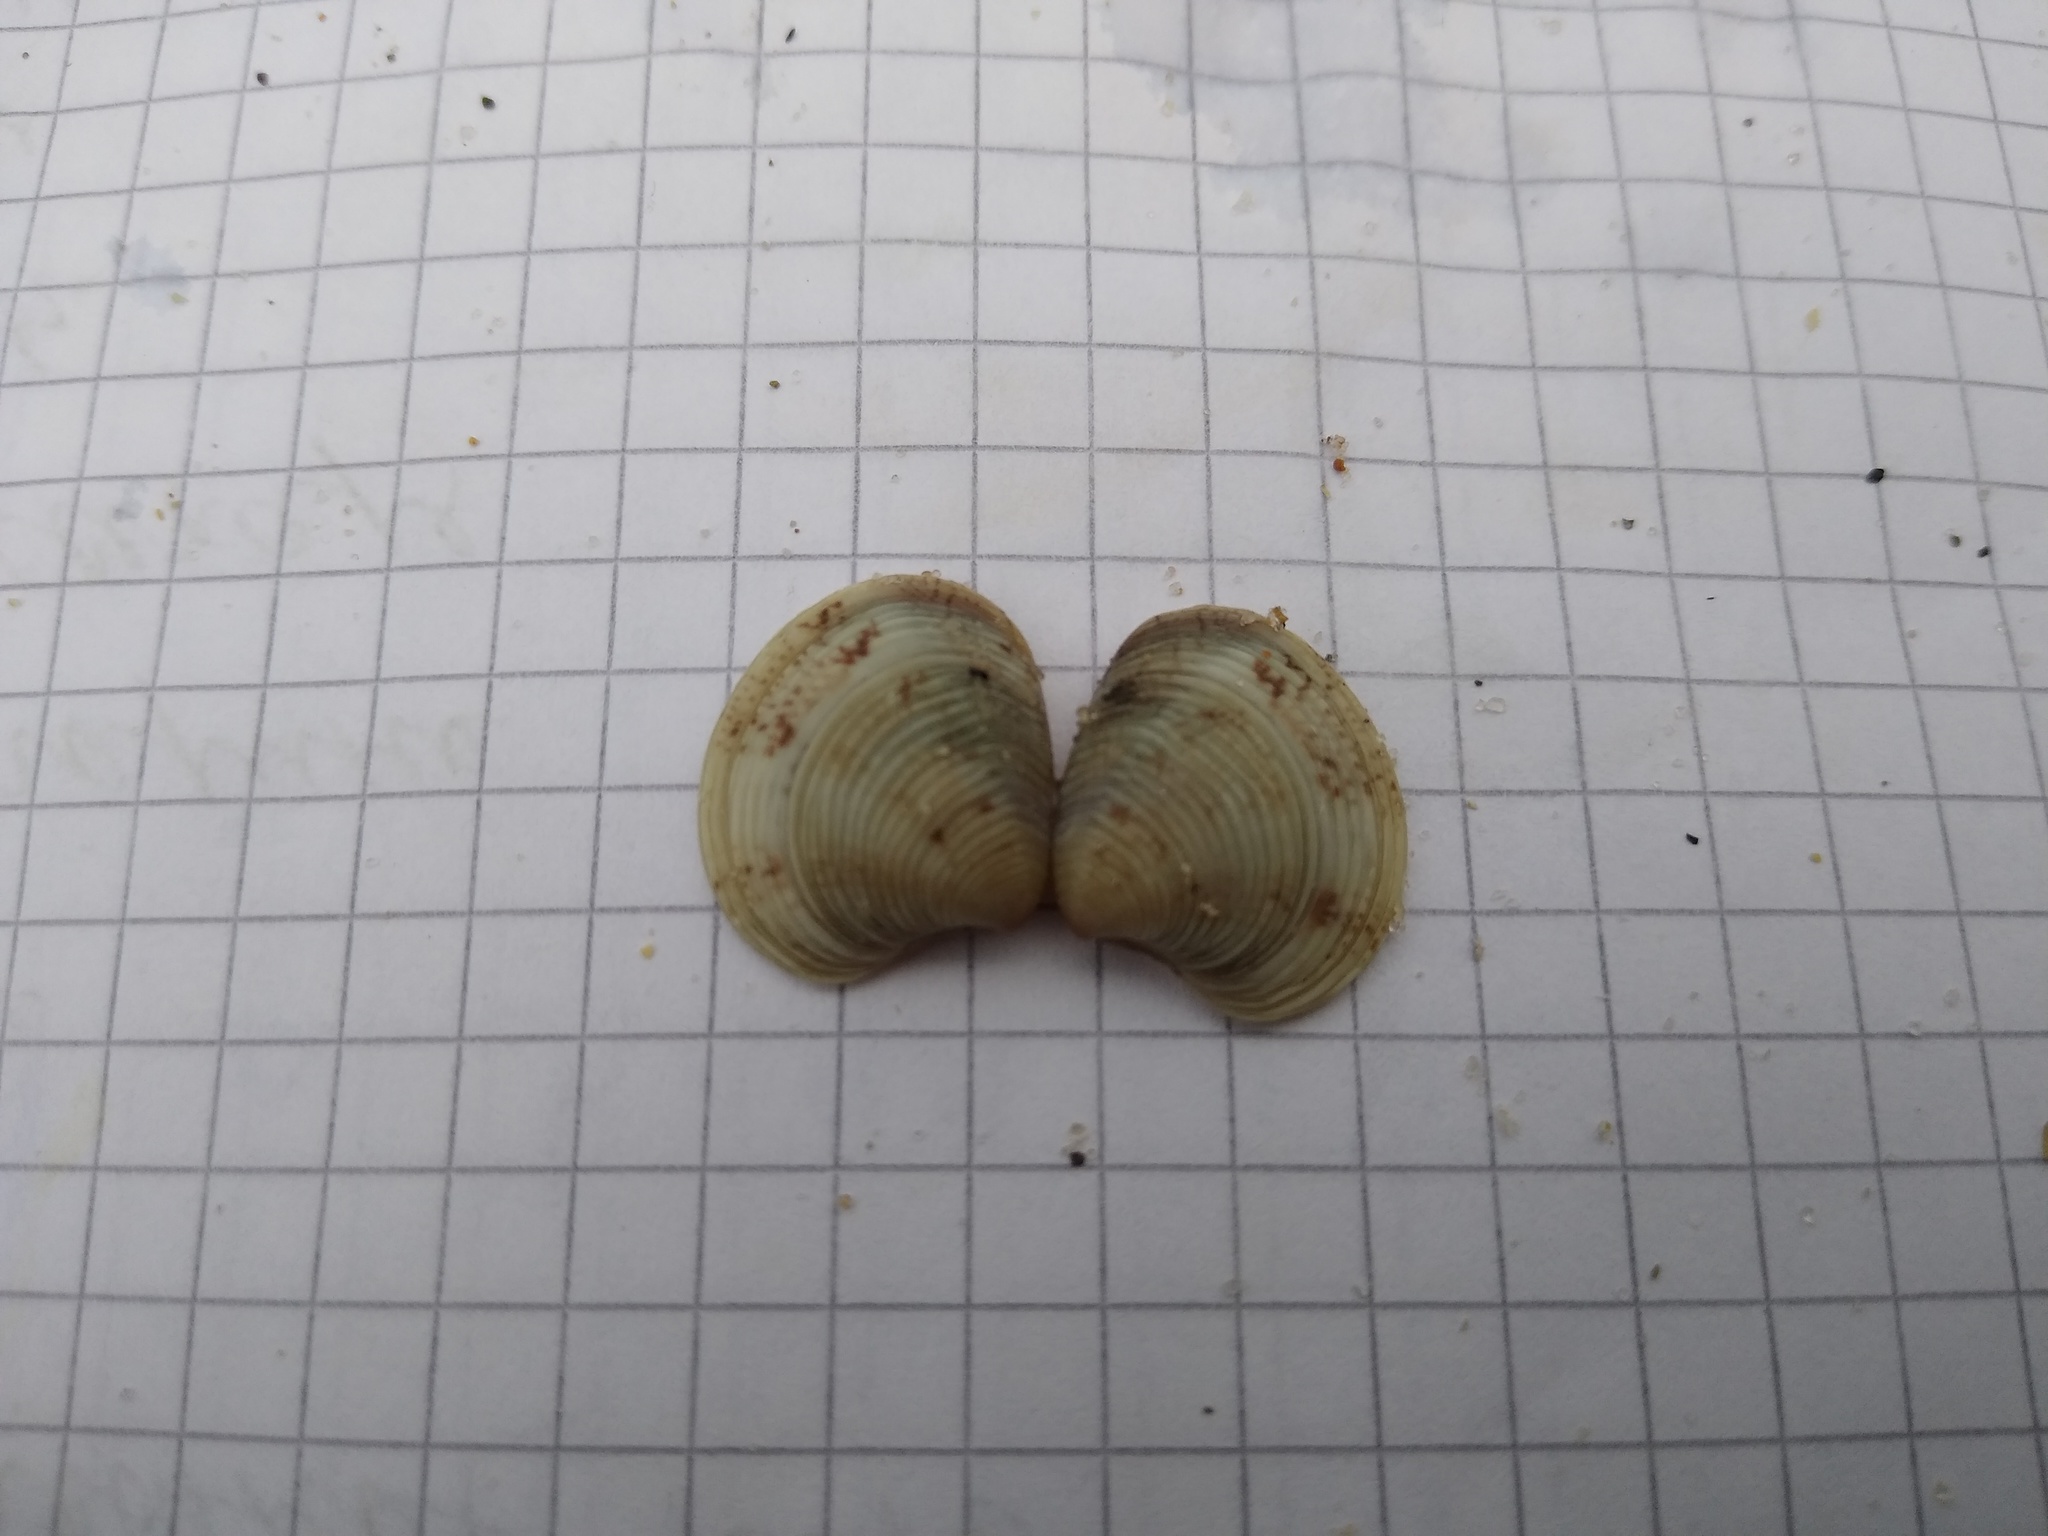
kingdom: Animalia
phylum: Mollusca
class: Bivalvia
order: Venerida
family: Veneridae
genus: Chamelea
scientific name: Chamelea gallina
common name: Chicken venus
